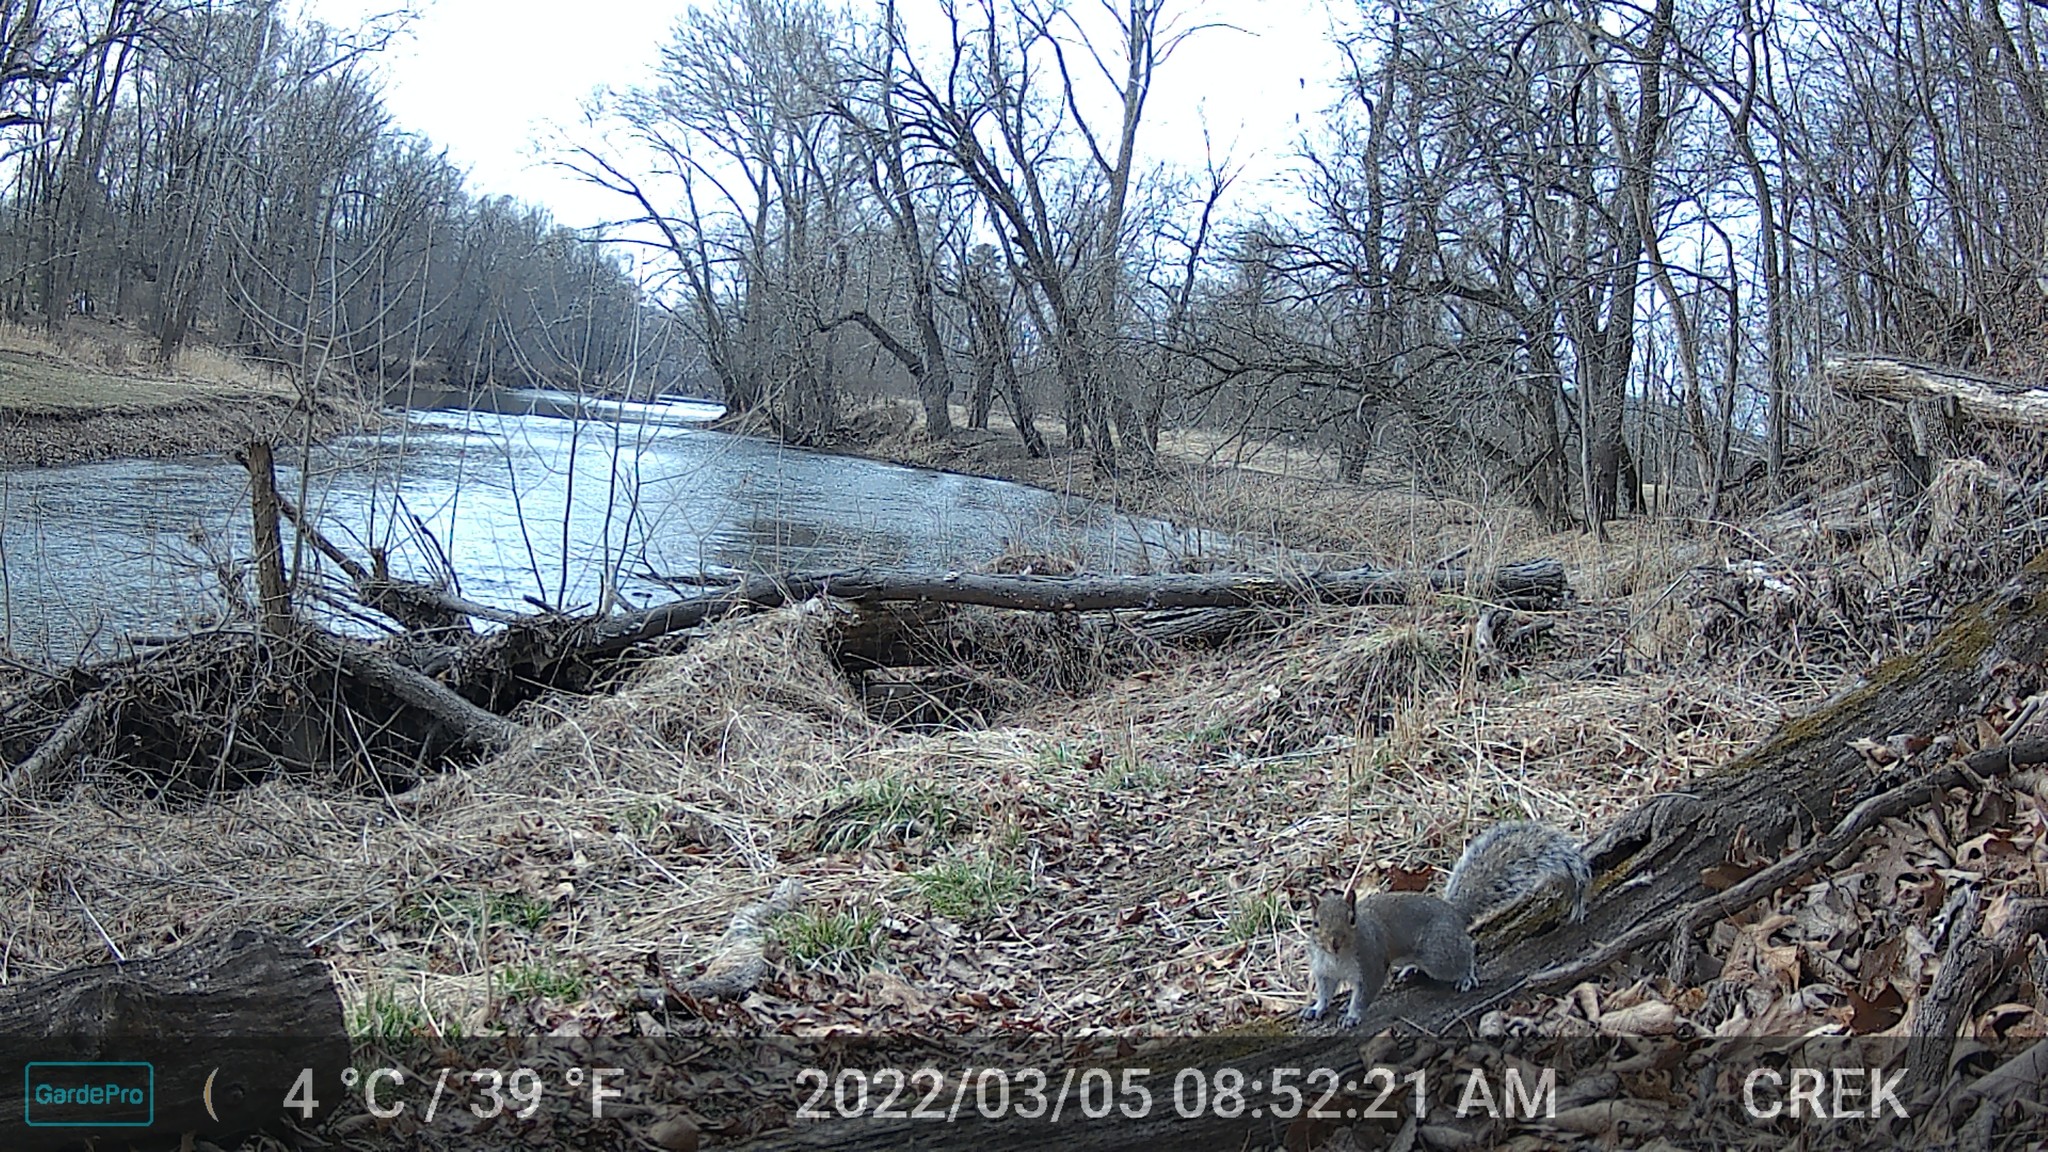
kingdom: Animalia
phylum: Chordata
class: Mammalia
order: Rodentia
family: Sciuridae
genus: Sciurus
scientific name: Sciurus carolinensis
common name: Eastern gray squirrel
